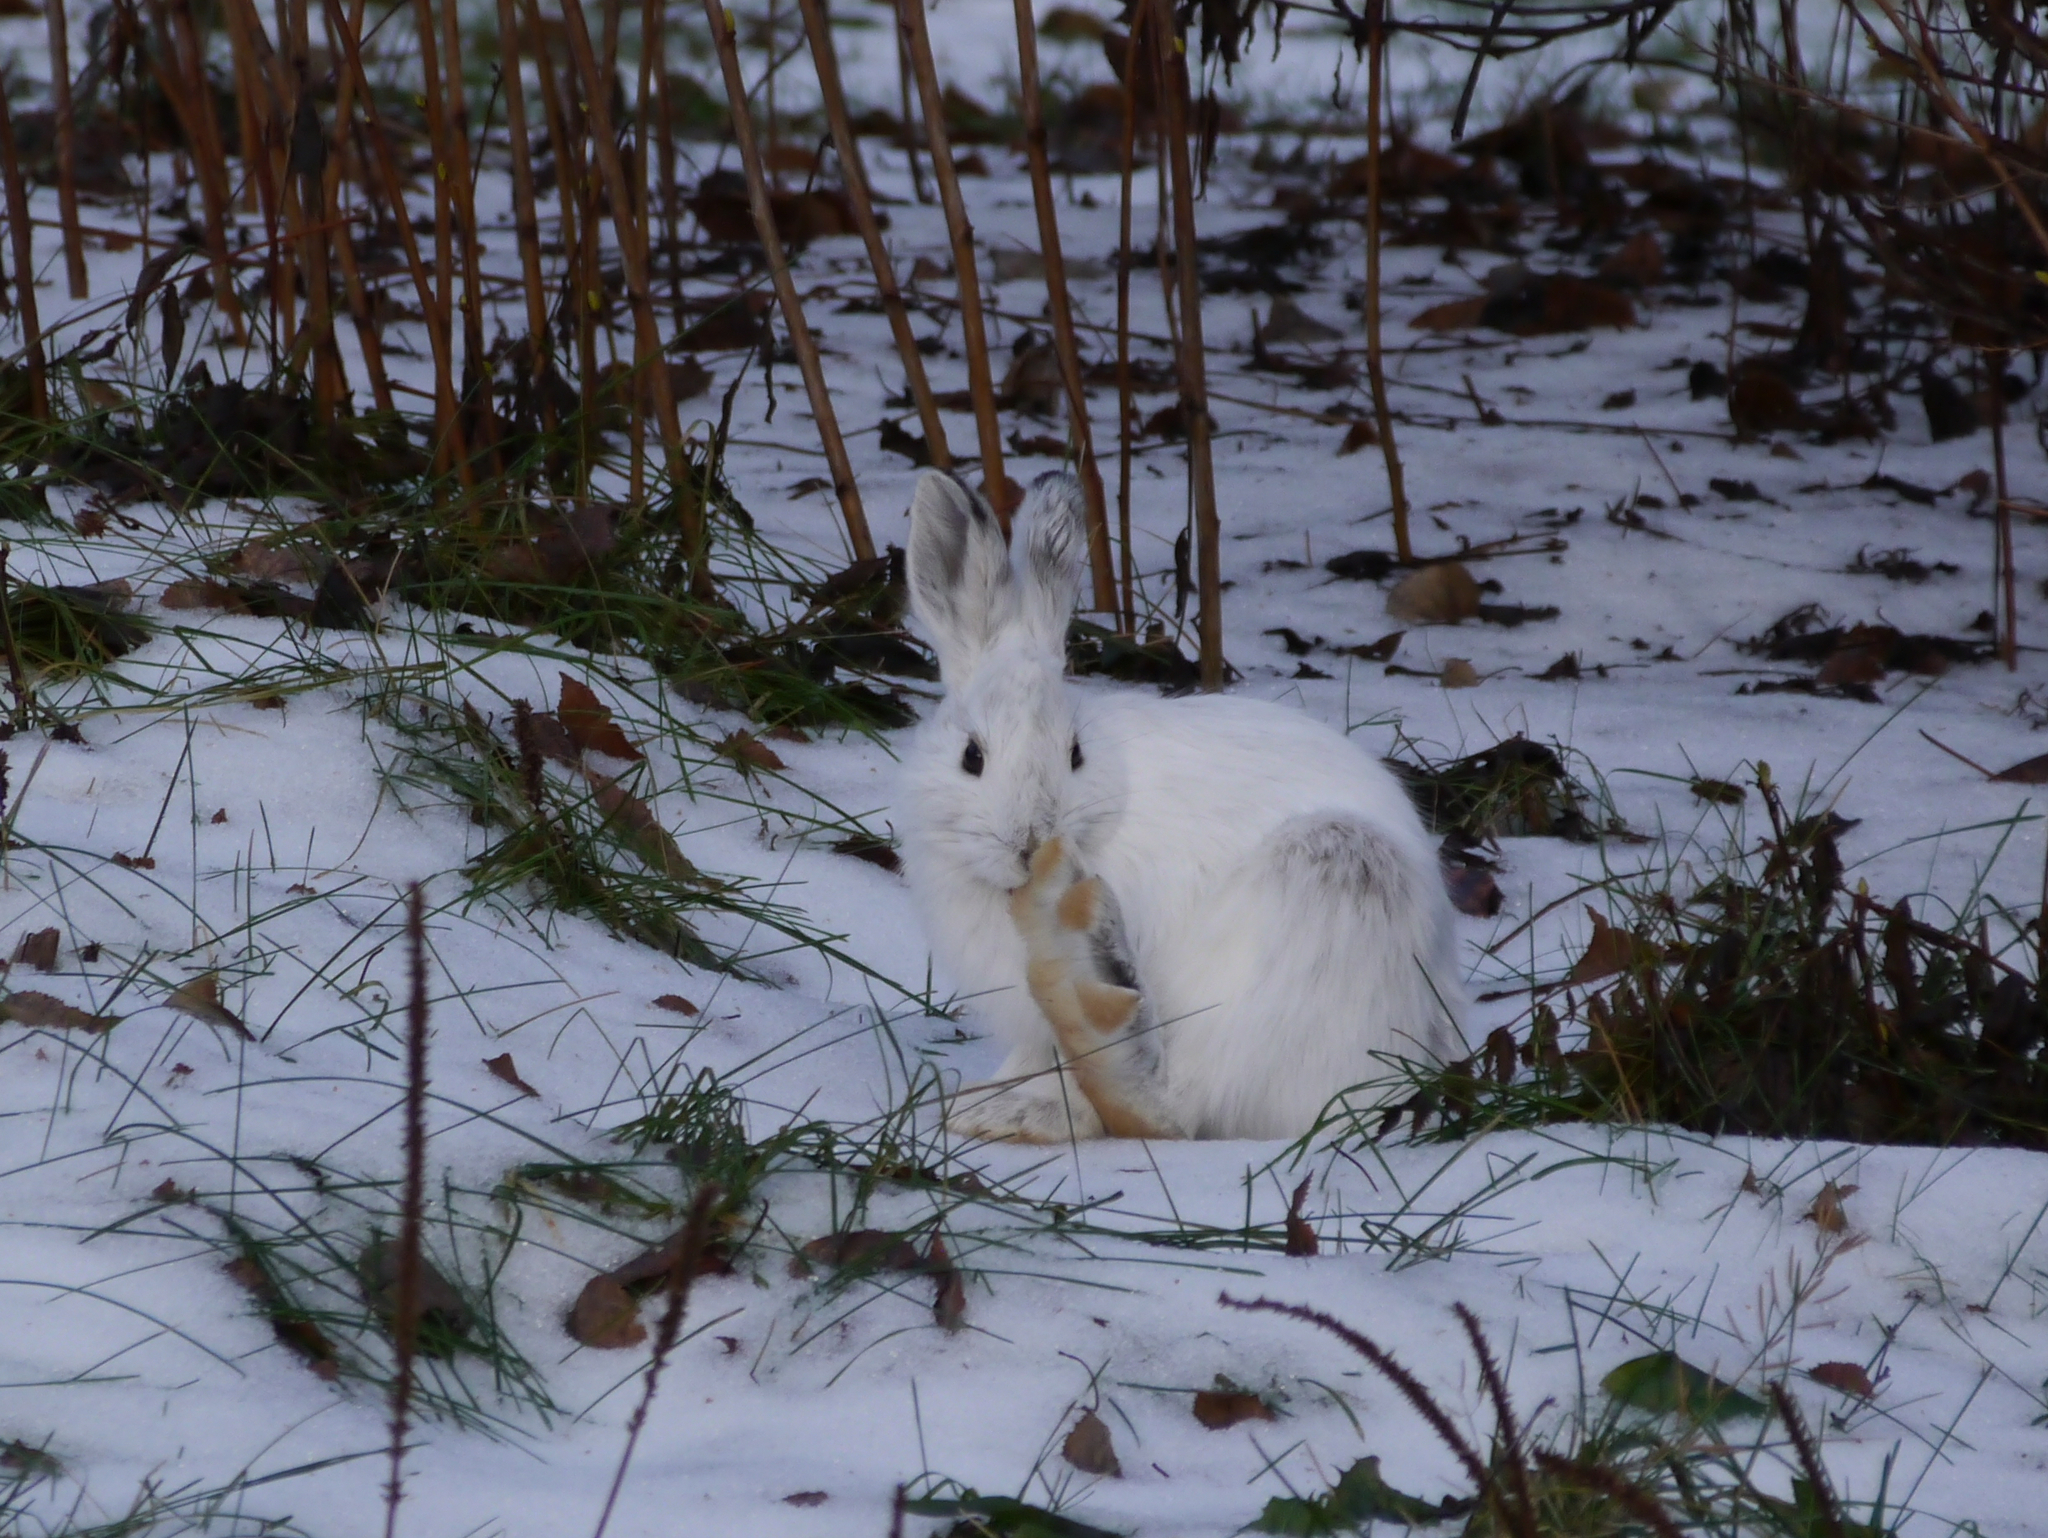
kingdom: Animalia
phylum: Chordata
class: Mammalia
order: Lagomorpha
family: Leporidae
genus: Lepus
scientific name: Lepus americanus
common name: Snowshoe hare
